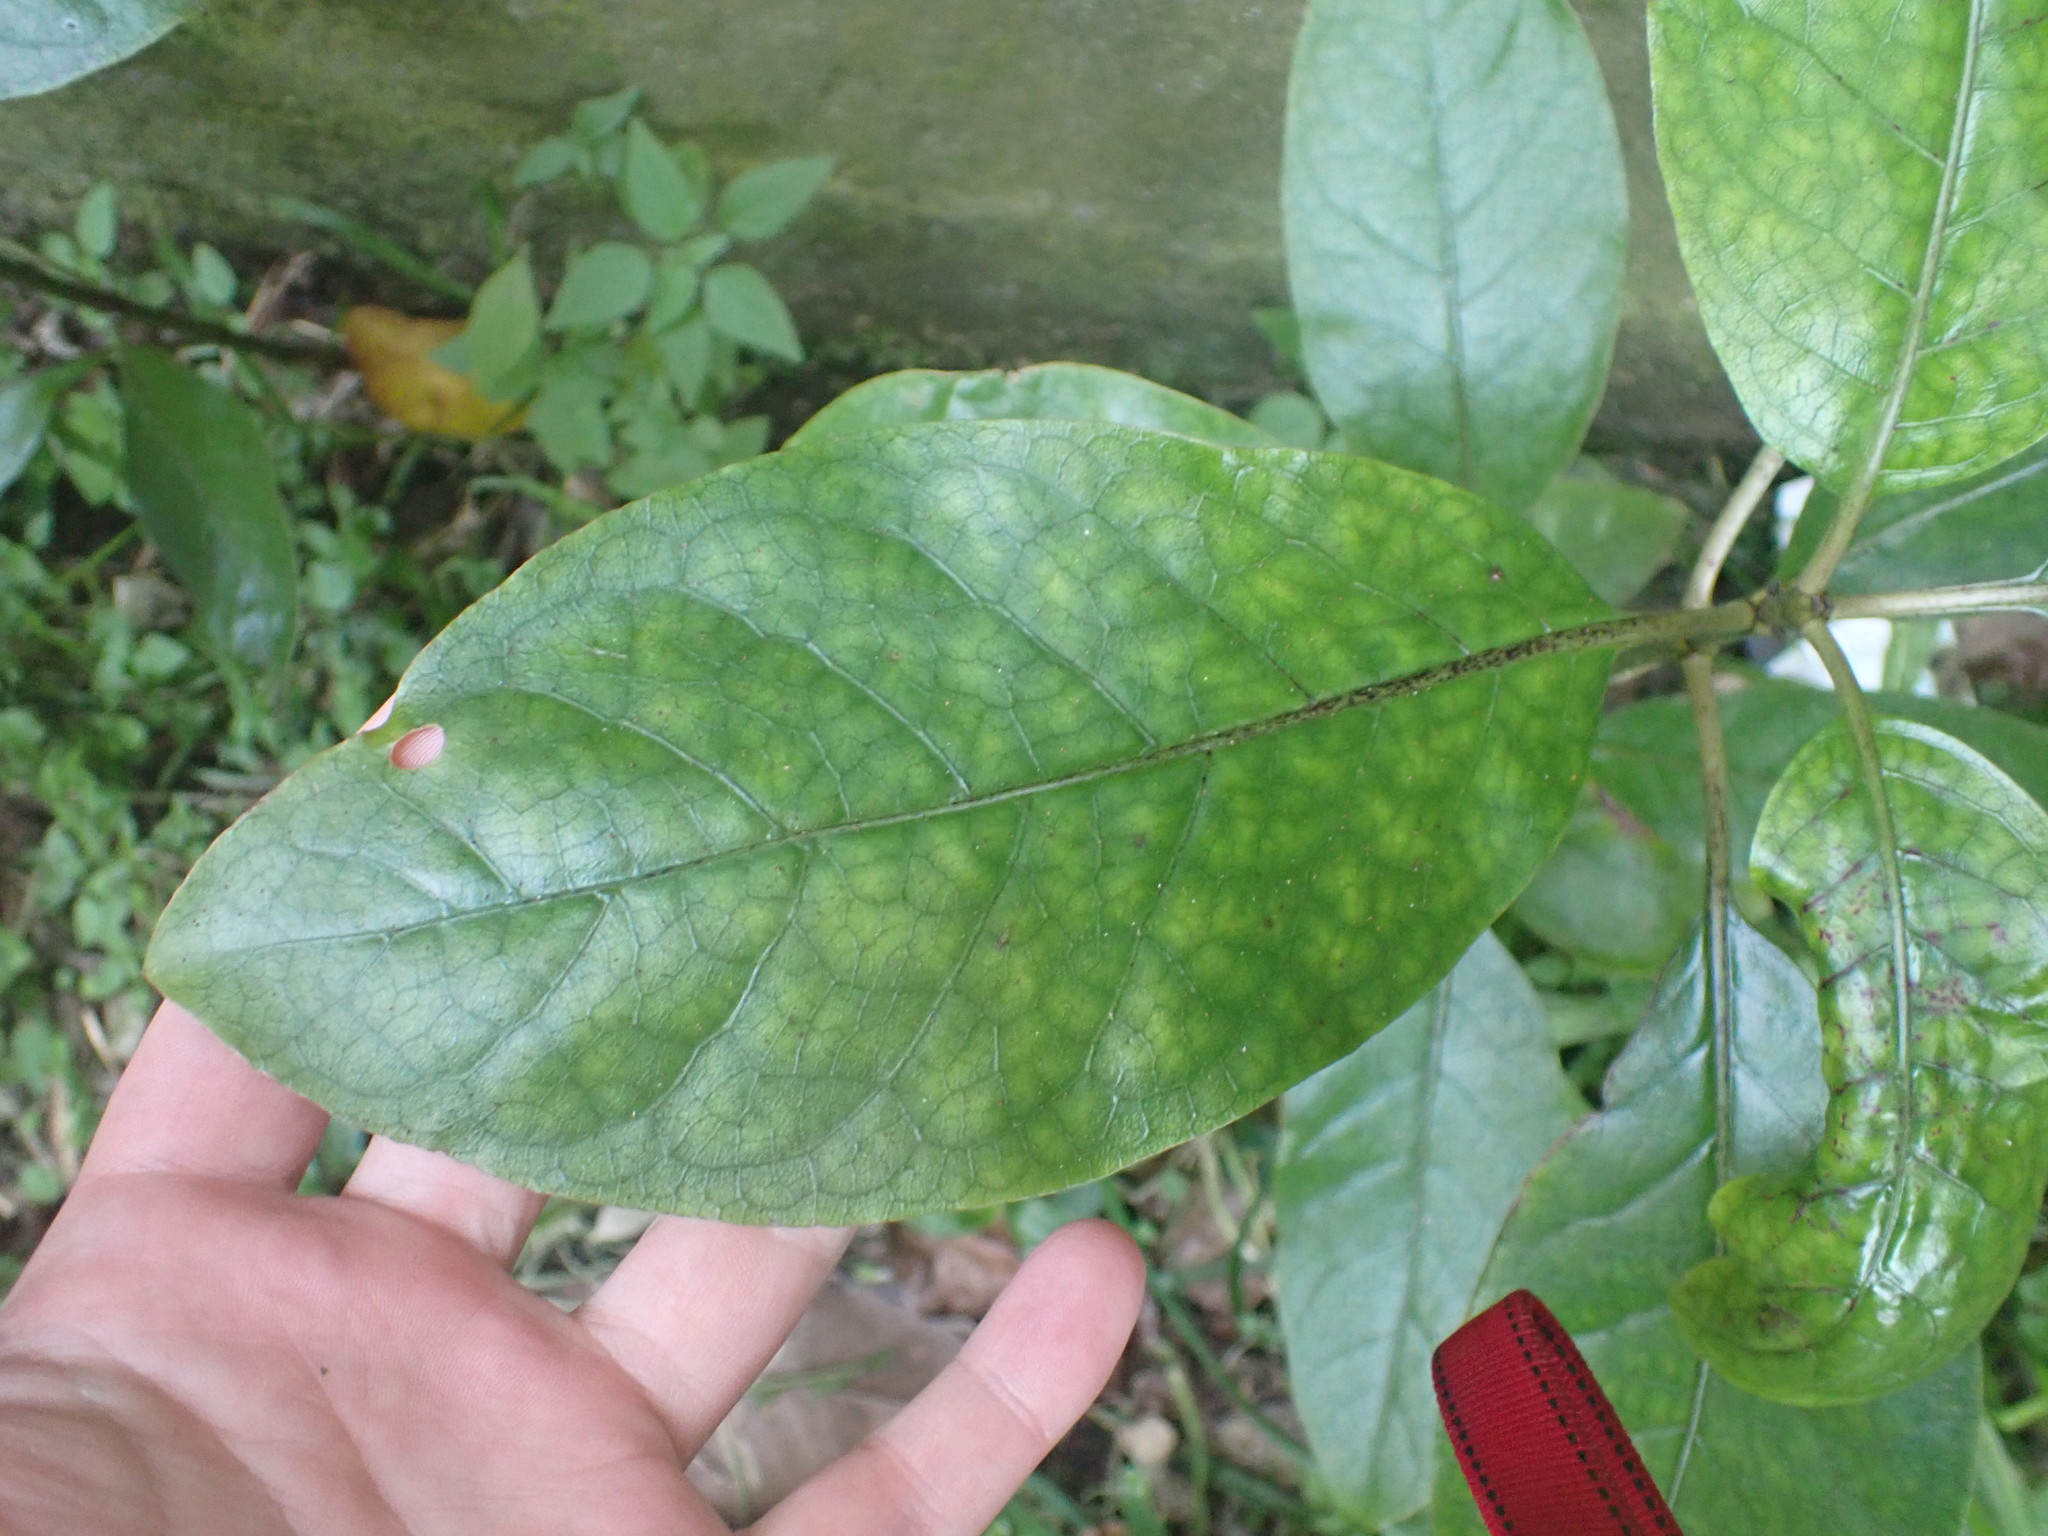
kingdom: Plantae
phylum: Tracheophyta
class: Magnoliopsida
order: Gentianales
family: Rubiaceae
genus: Coprosma
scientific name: Coprosma autumnalis
